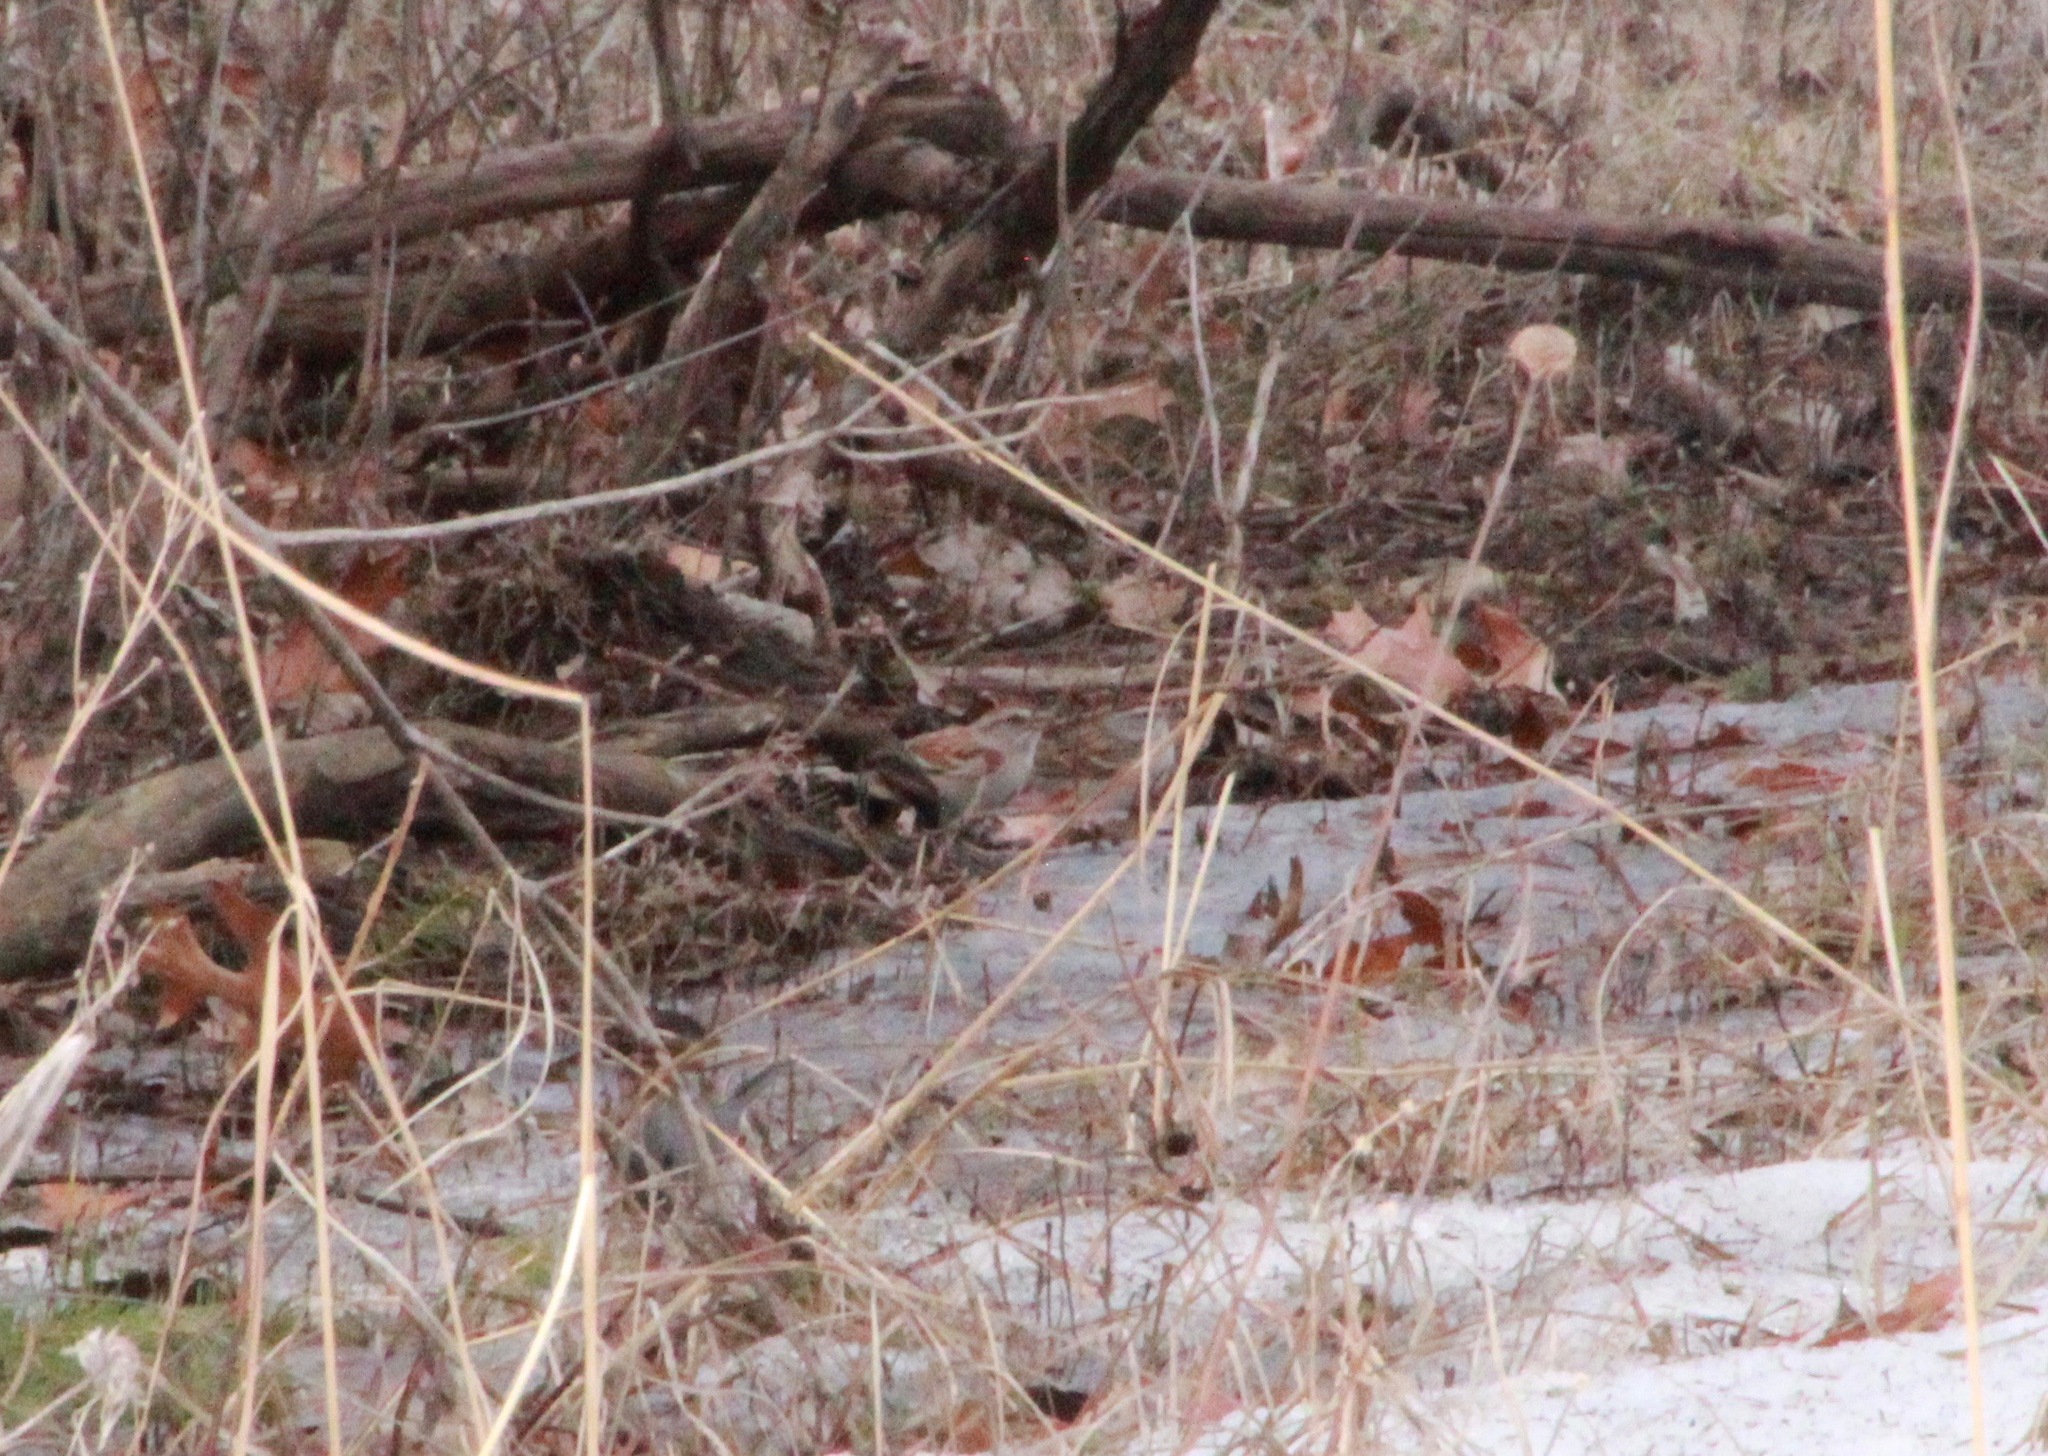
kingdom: Animalia
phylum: Chordata
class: Aves
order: Passeriformes
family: Passerellidae
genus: Spizella
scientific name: Spizella passerina
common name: Chipping sparrow
